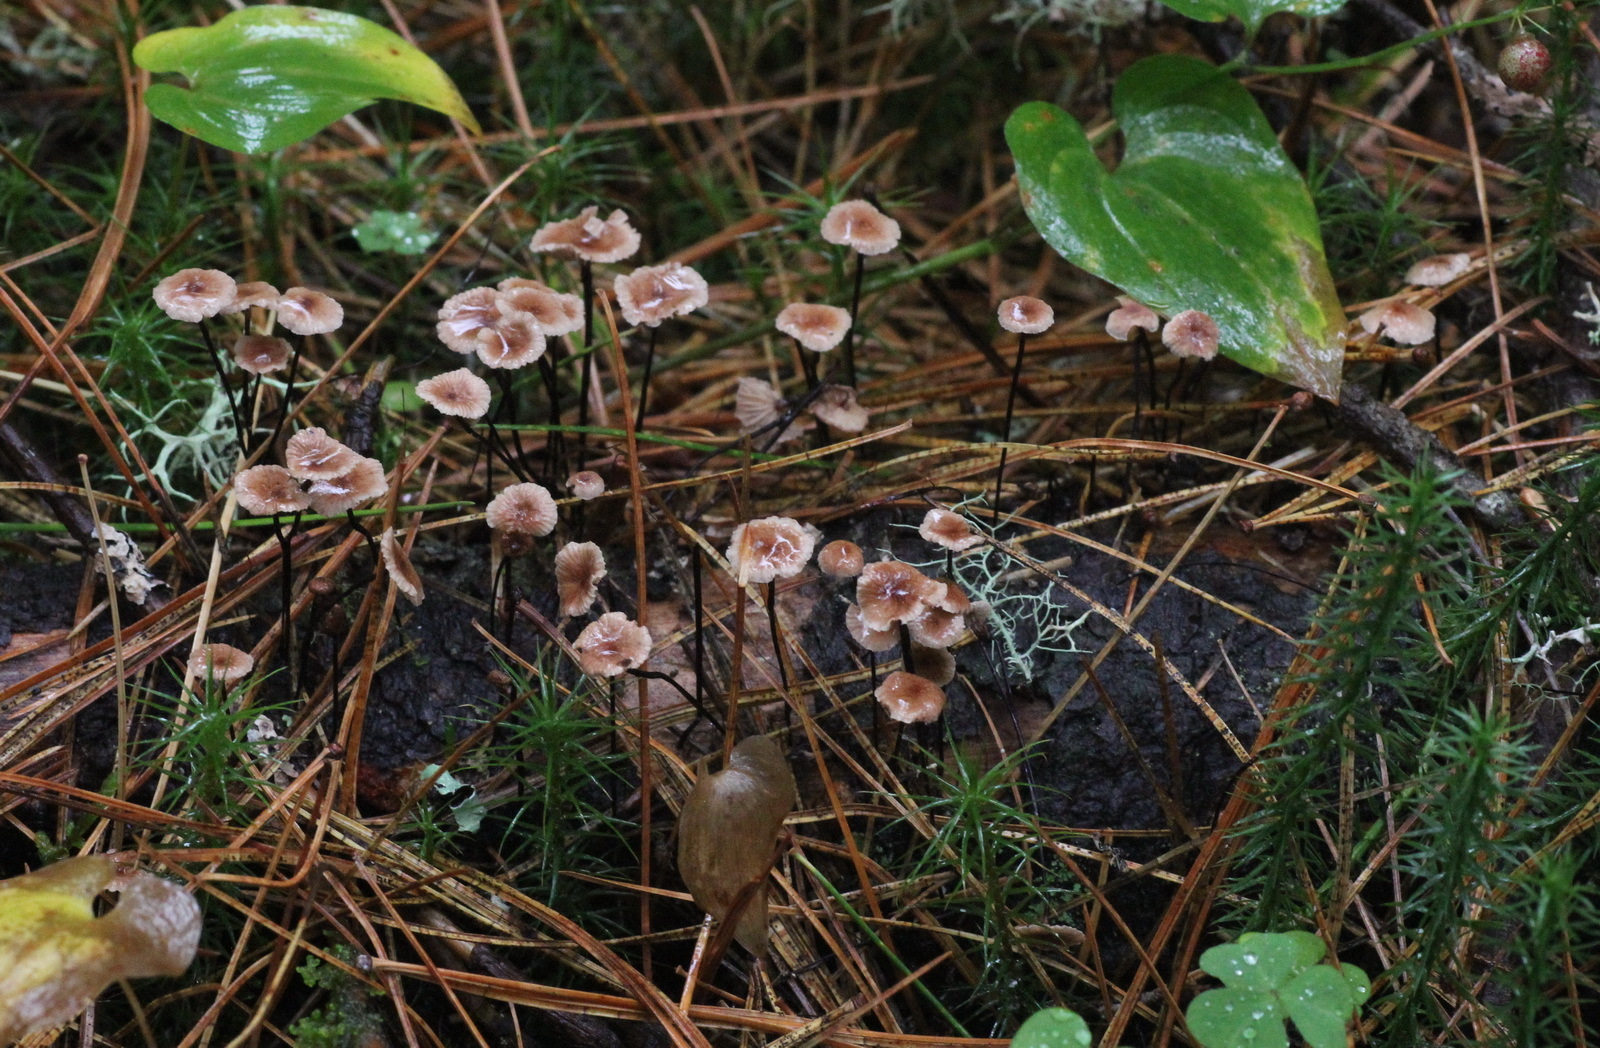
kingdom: Fungi
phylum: Basidiomycota
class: Agaricomycetes
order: Agaricales
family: Omphalotaceae
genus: Gymnopus
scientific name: Gymnopus androsaceus
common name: Horse-hair fungus
